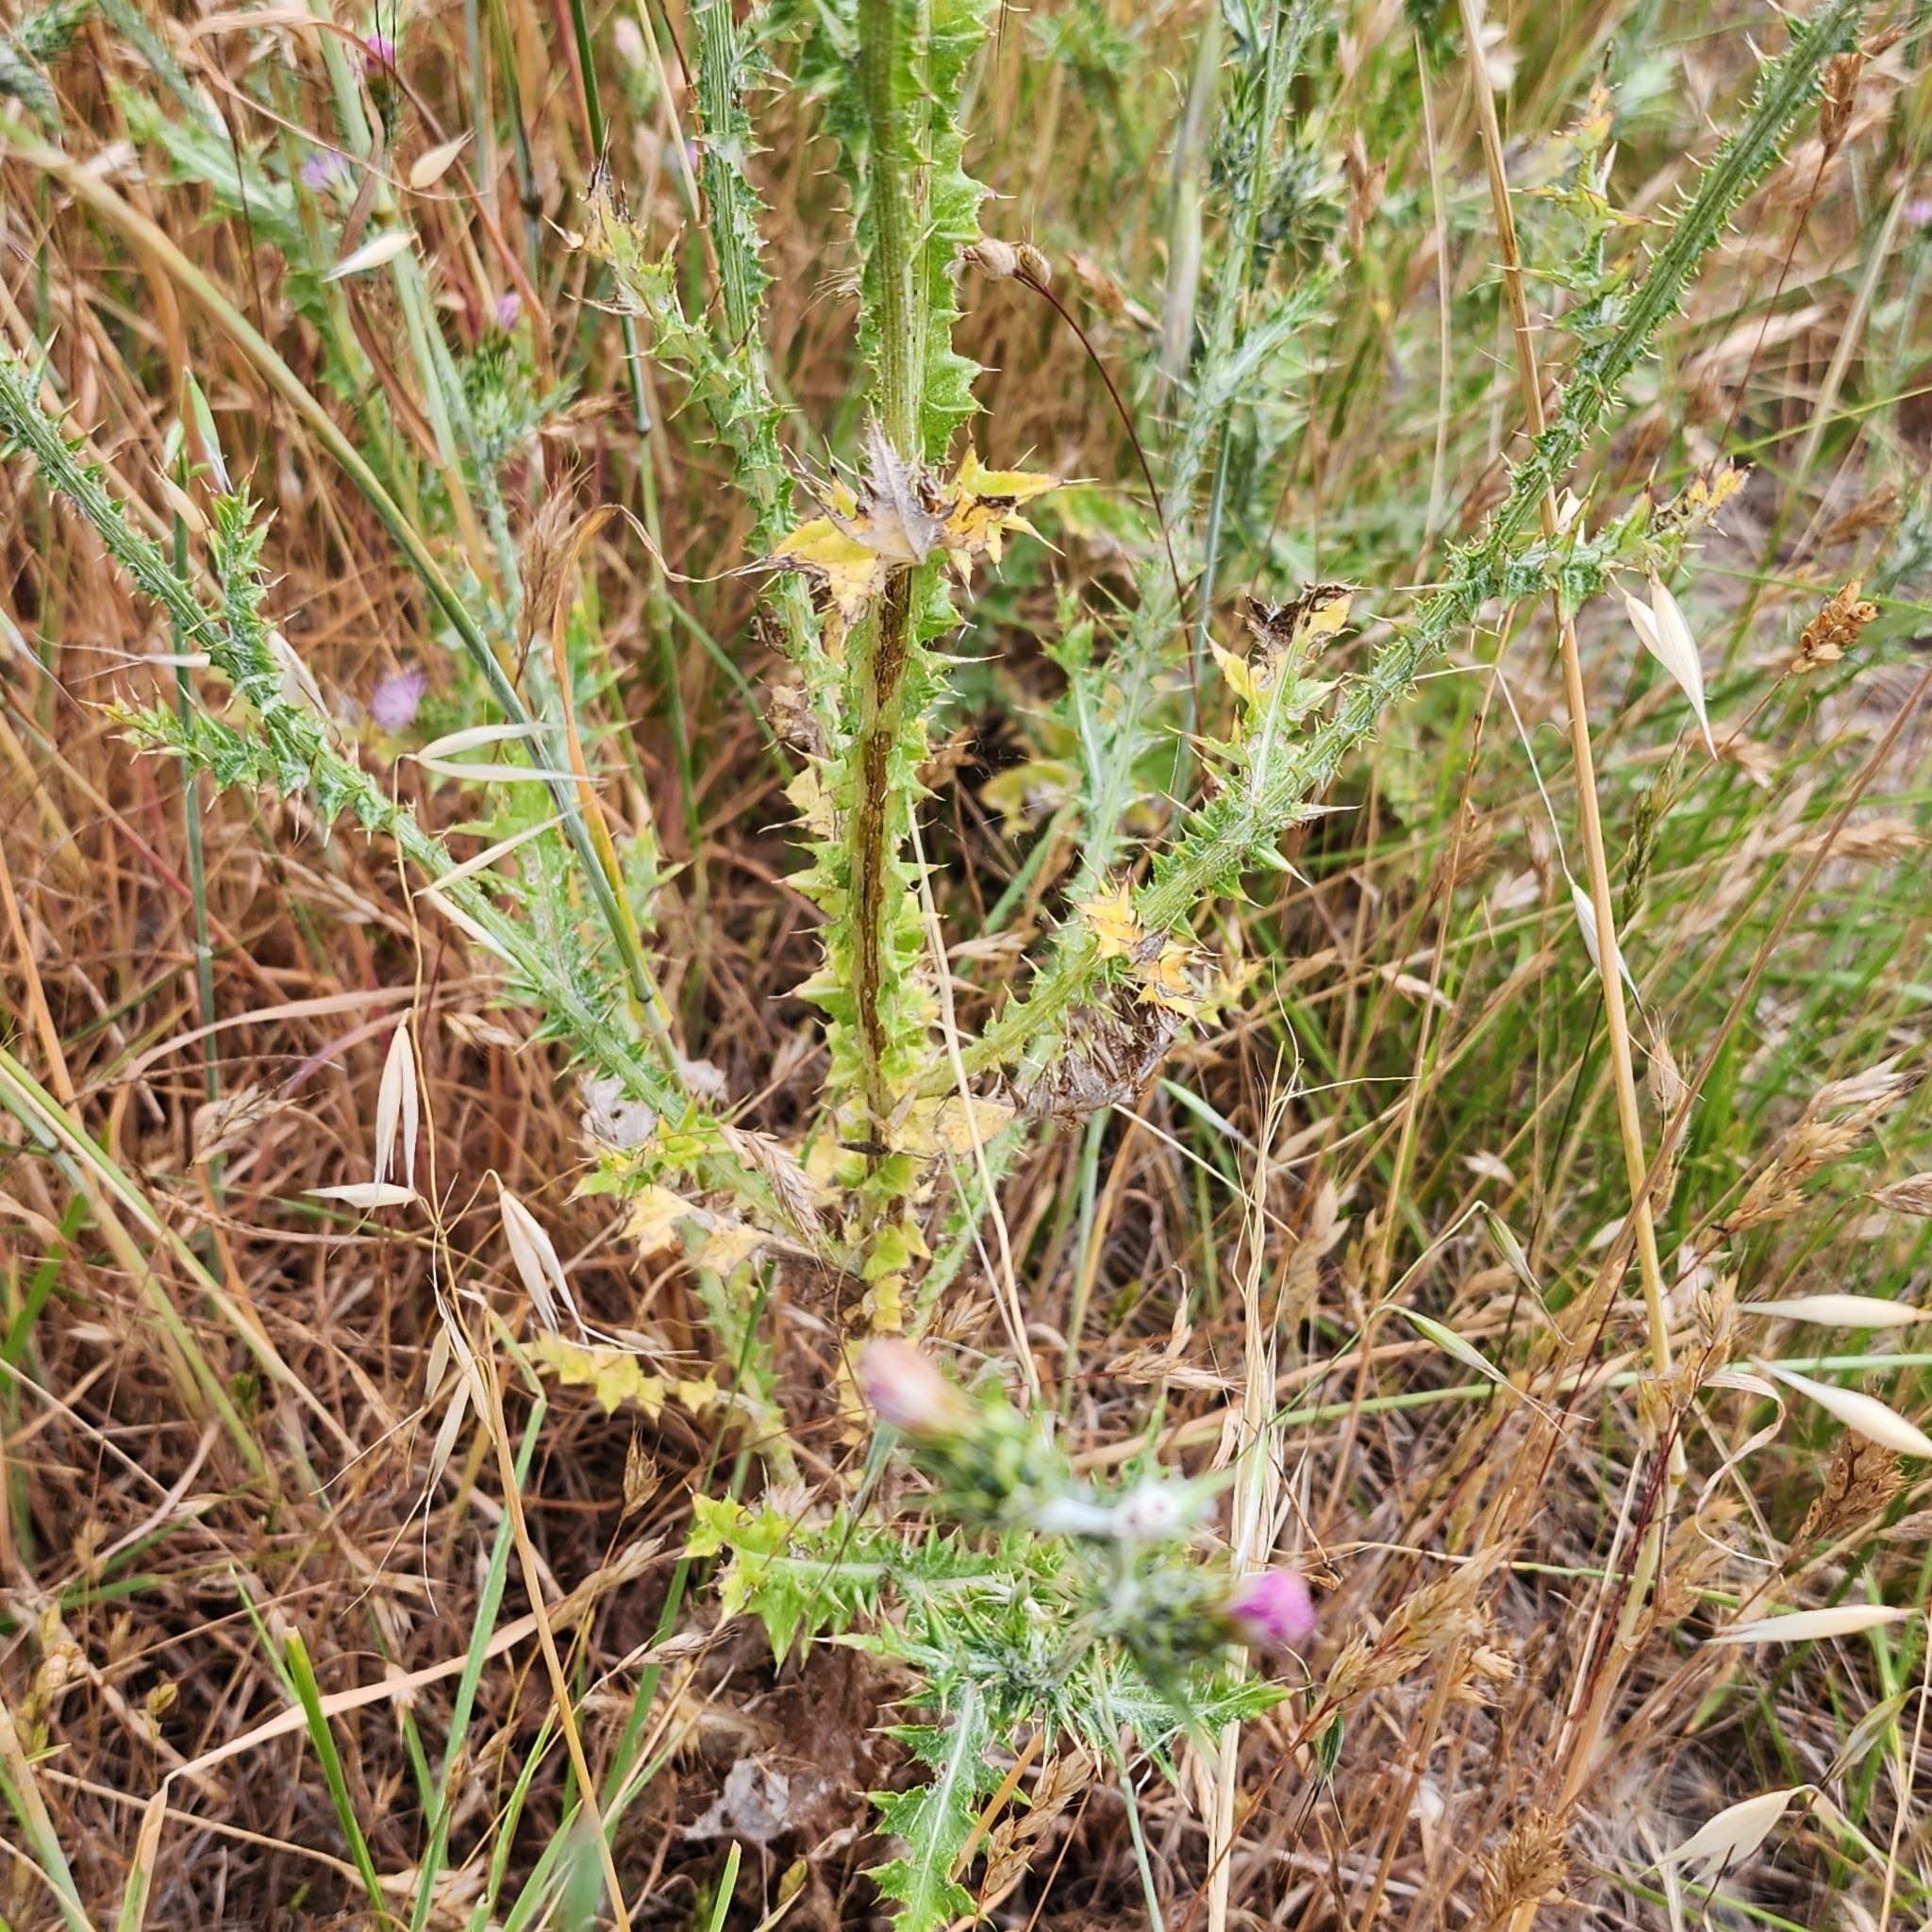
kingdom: Plantae
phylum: Tracheophyta
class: Magnoliopsida
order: Asterales
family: Asteraceae
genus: Carduus
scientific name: Carduus pycnocephalus
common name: Plymouth thistle
